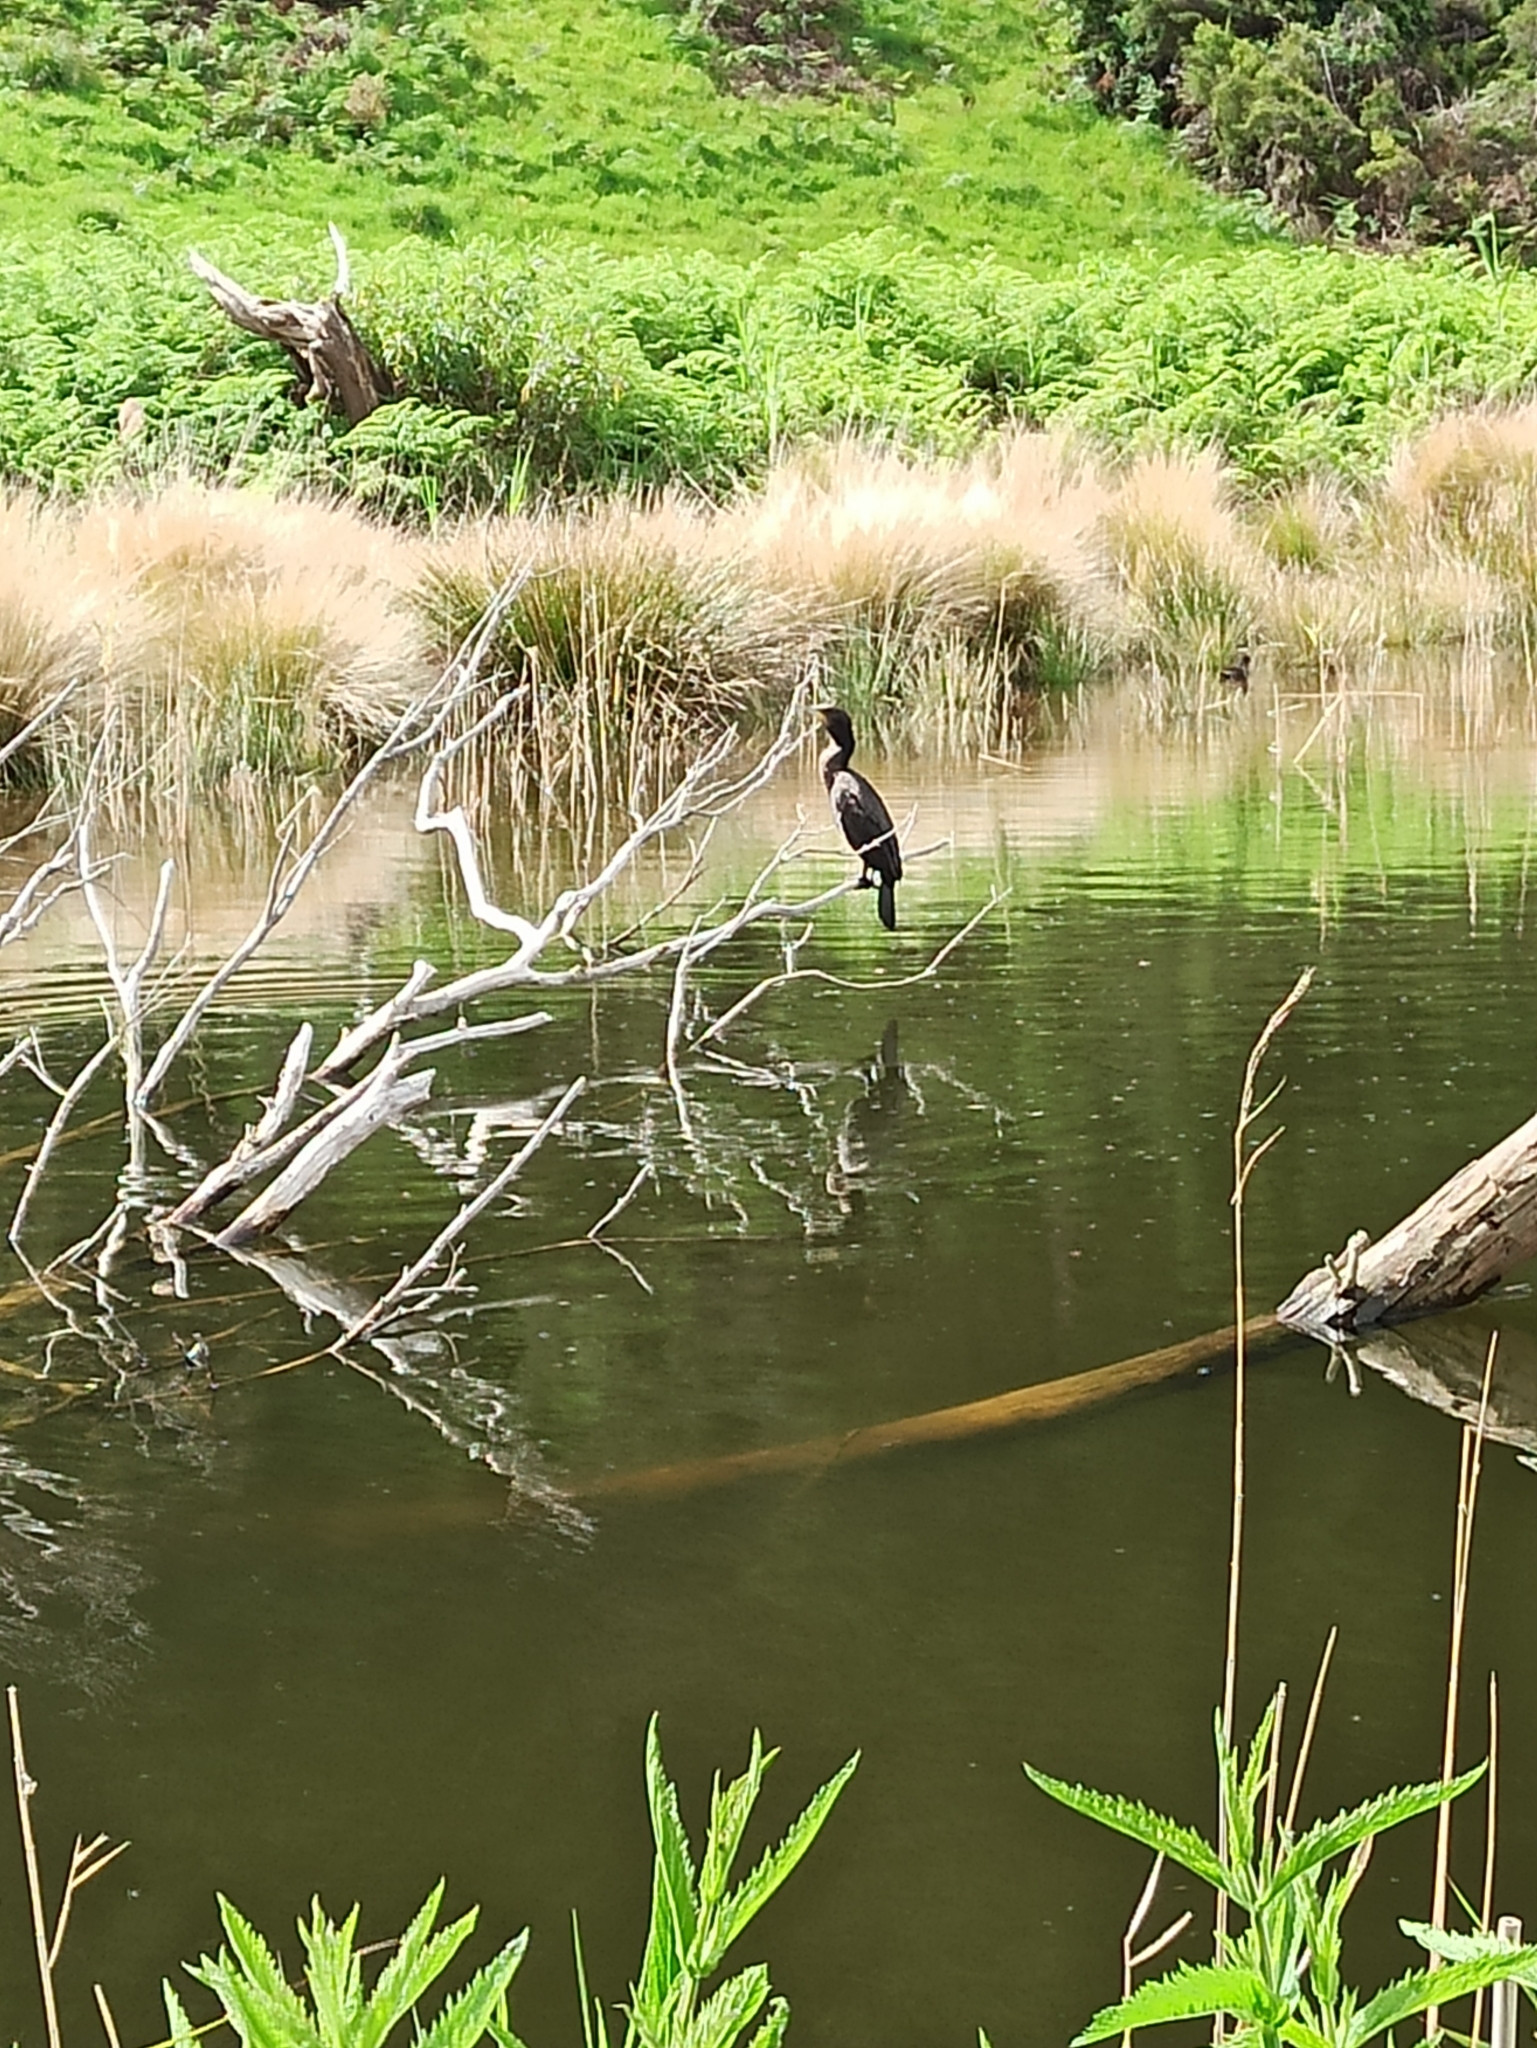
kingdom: Animalia
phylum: Chordata
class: Aves
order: Suliformes
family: Phalacrocoracidae
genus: Phalacrocorax
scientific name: Phalacrocorax sulcirostris
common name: Little black cormorant
